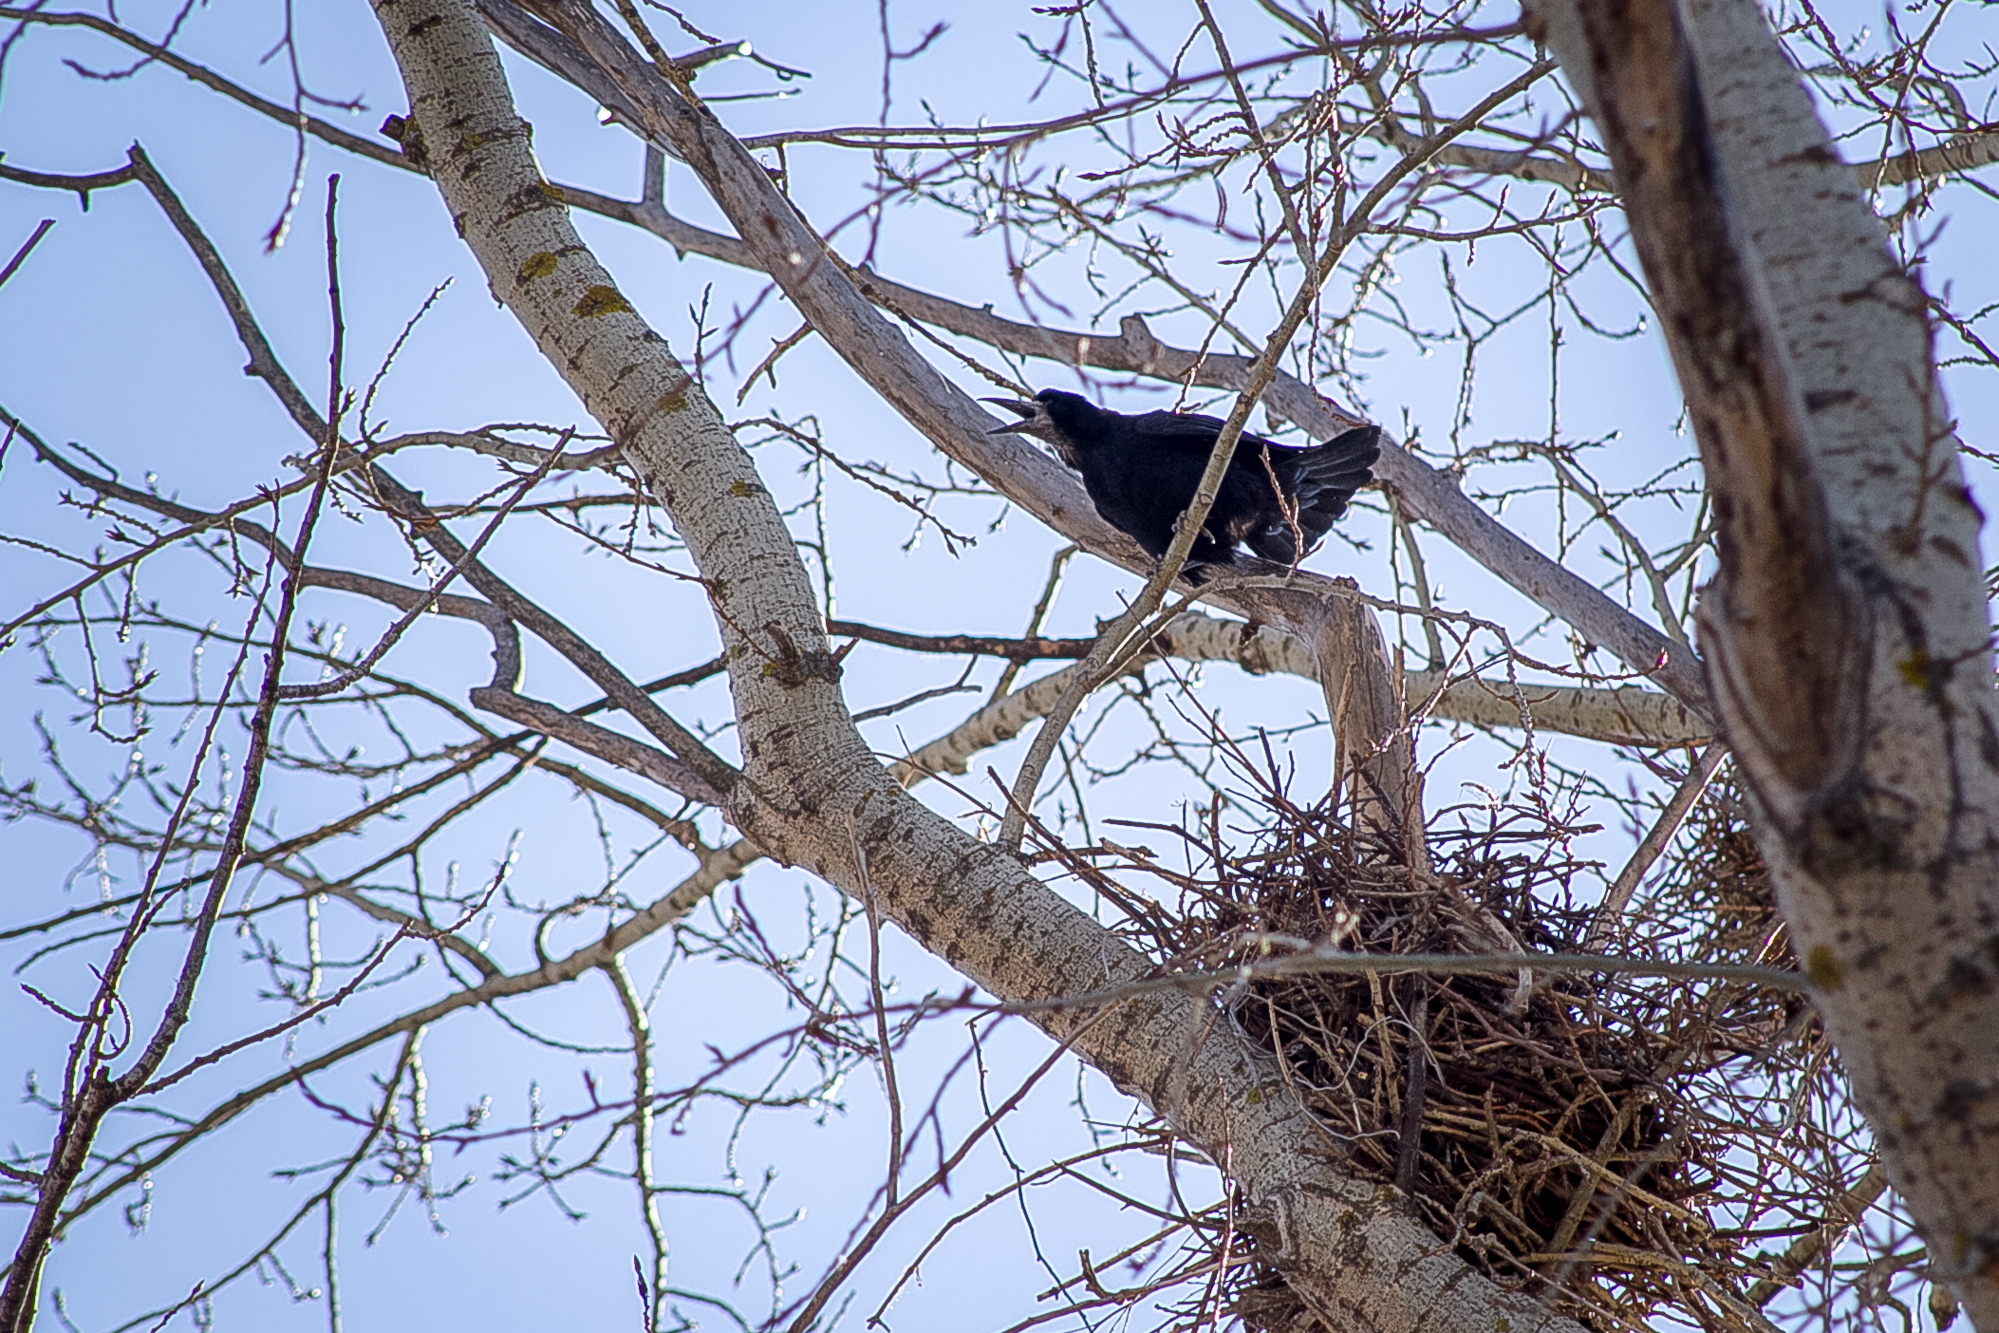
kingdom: Animalia
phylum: Chordata
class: Aves
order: Passeriformes
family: Corvidae
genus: Corvus
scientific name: Corvus frugilegus
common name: Rook
